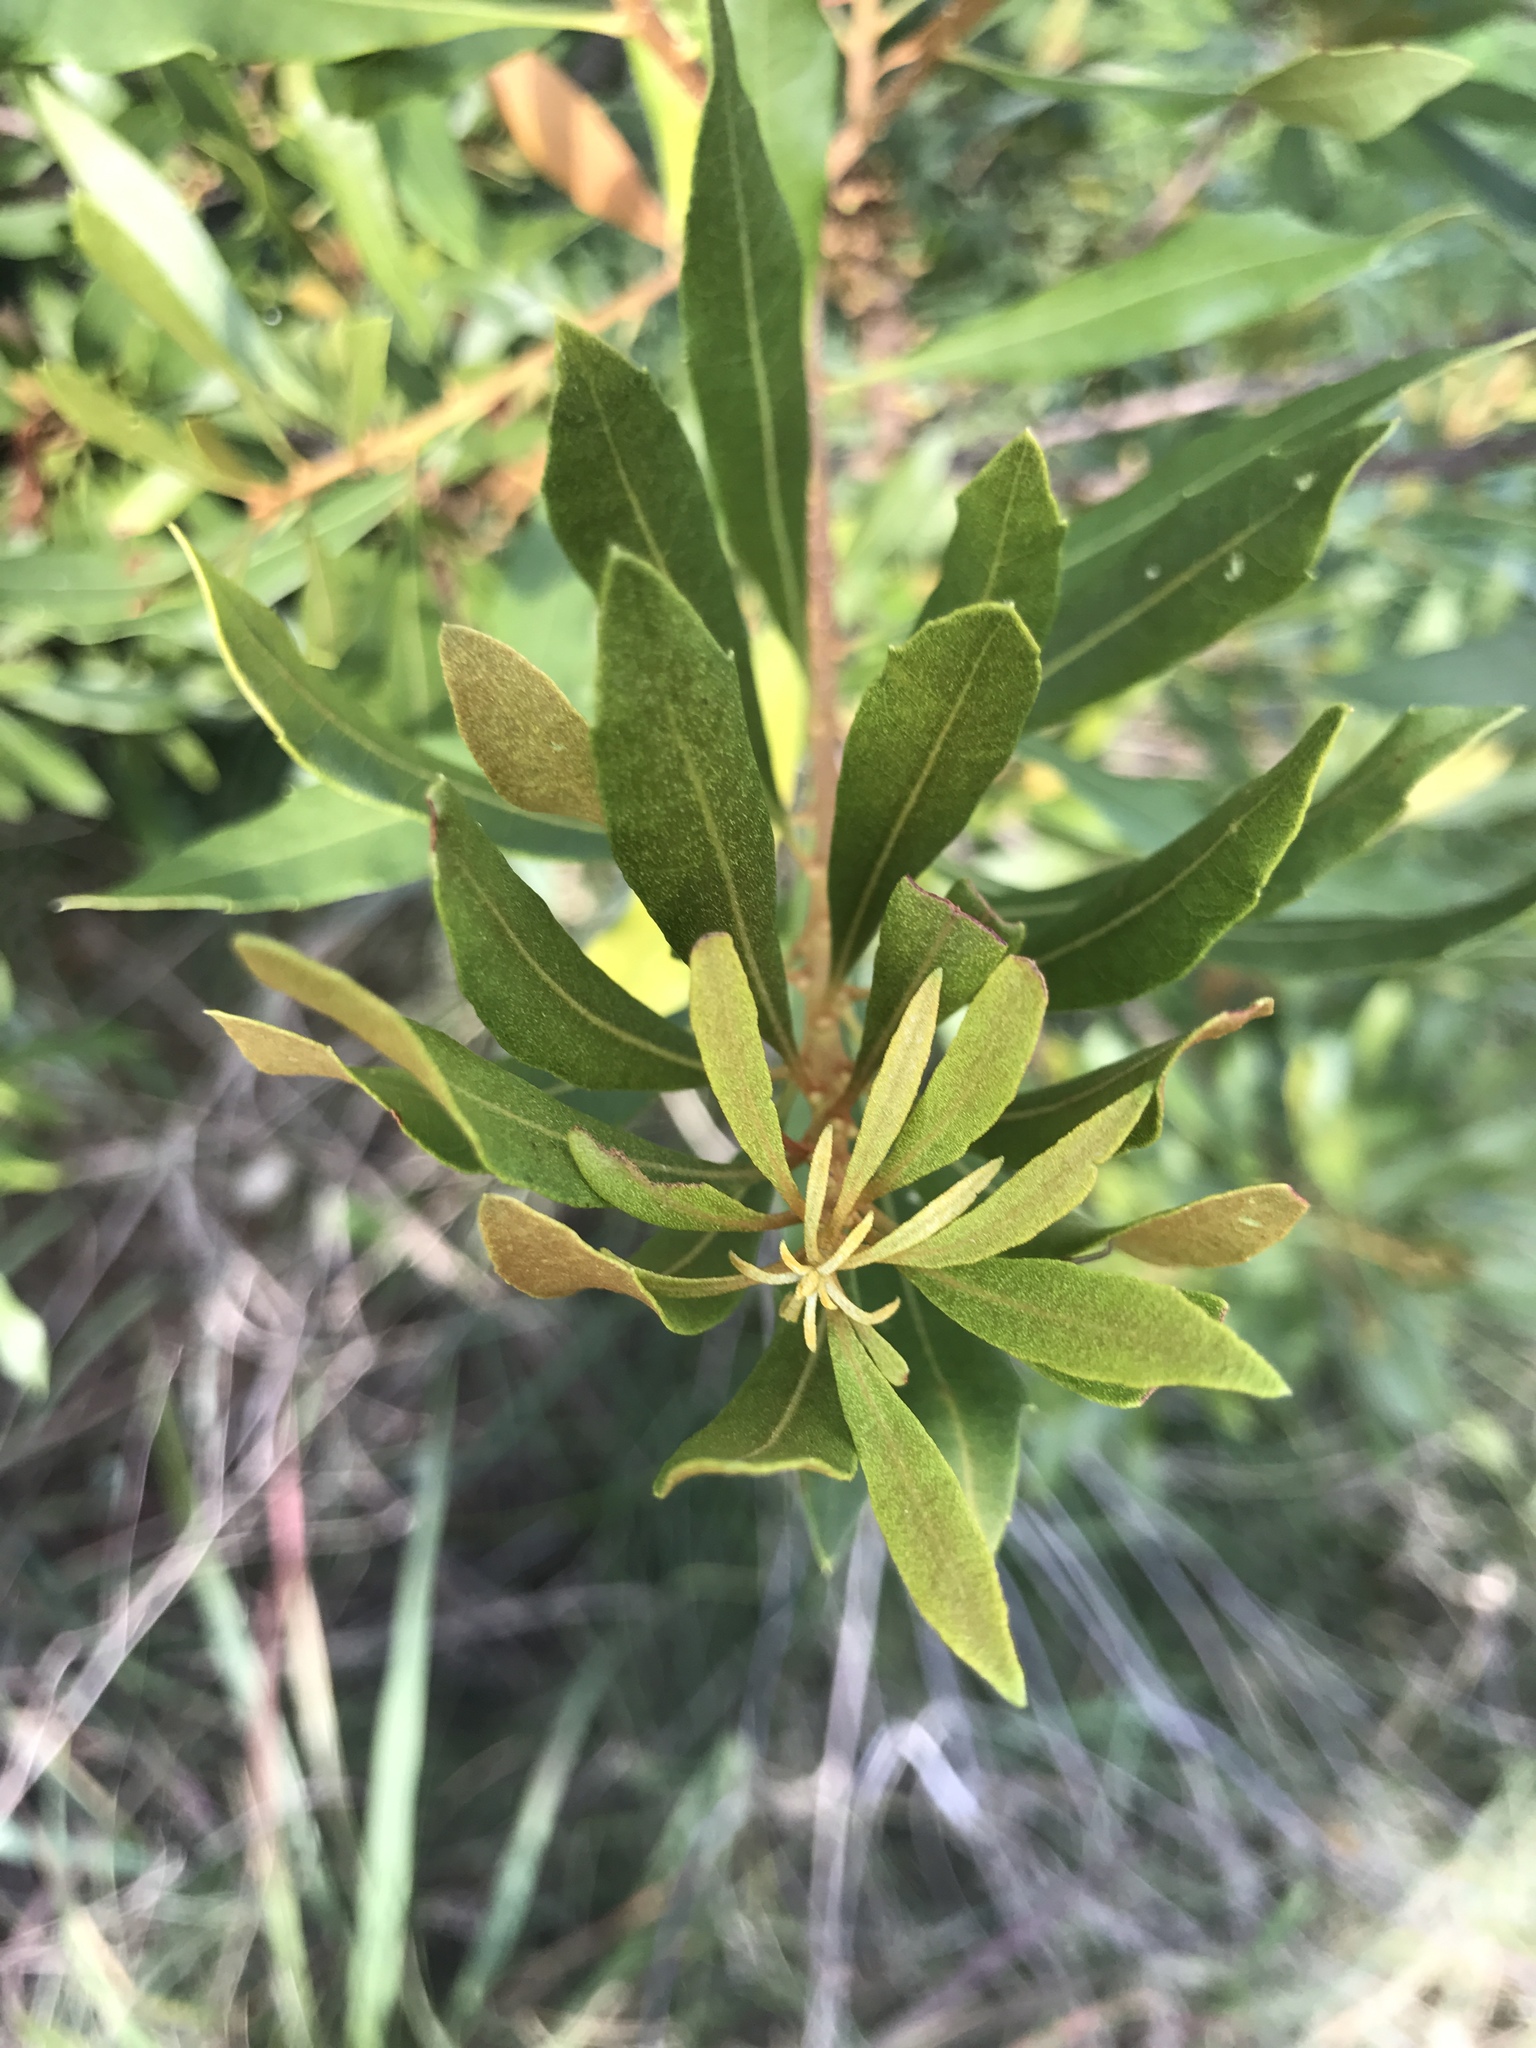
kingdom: Plantae
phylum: Tracheophyta
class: Magnoliopsida
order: Fagales
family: Myricaceae
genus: Morella
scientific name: Morella cerifera
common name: Wax myrtle
